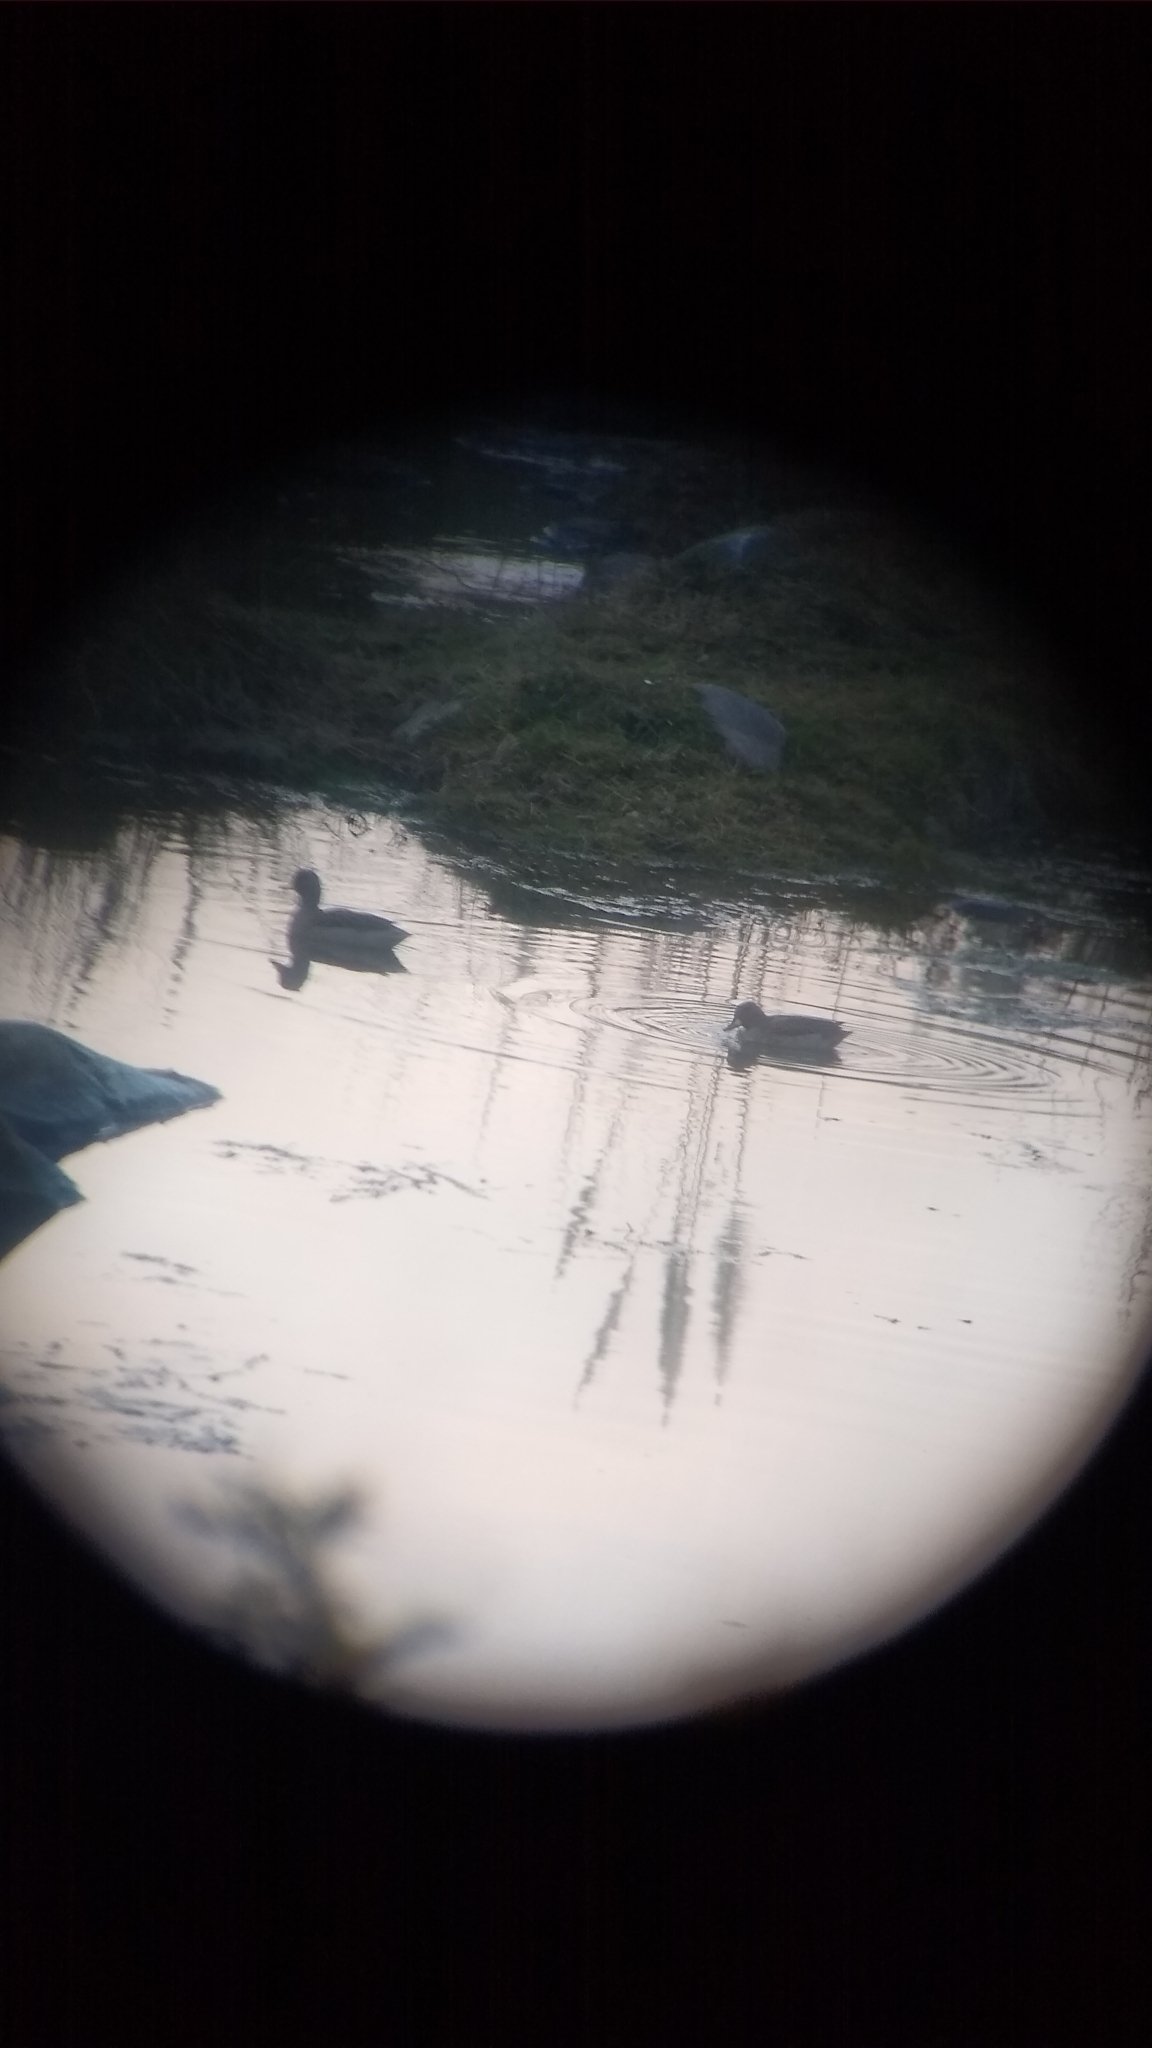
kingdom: Animalia
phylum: Chordata
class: Aves
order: Anseriformes
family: Anatidae
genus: Anas
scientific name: Anas flavirostris
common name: Yellow-billed teal
